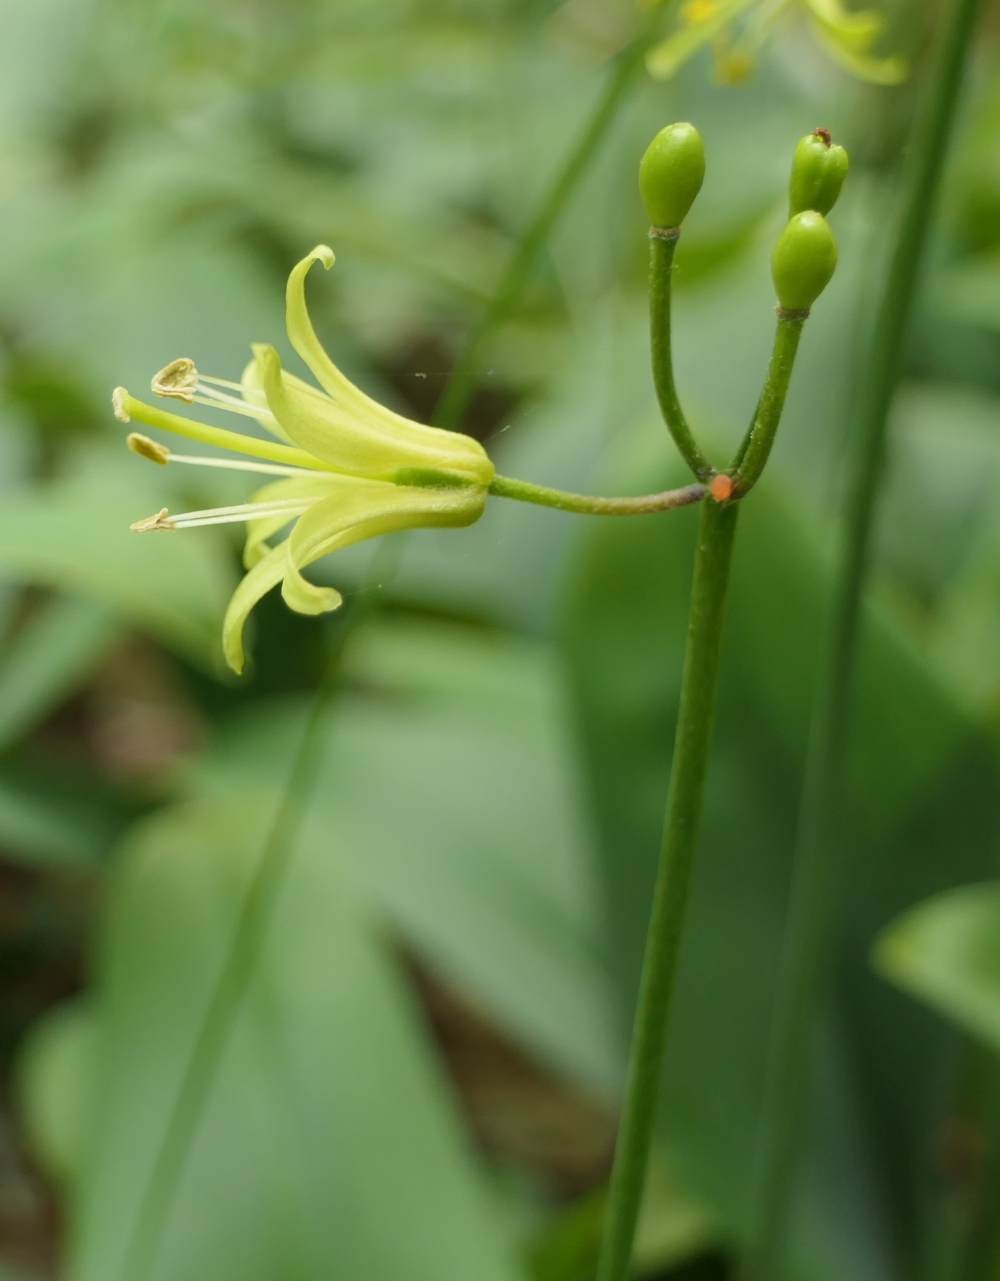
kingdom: Plantae
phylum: Tracheophyta
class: Liliopsida
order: Liliales
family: Liliaceae
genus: Clintonia
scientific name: Clintonia borealis
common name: Yellow clintonia
